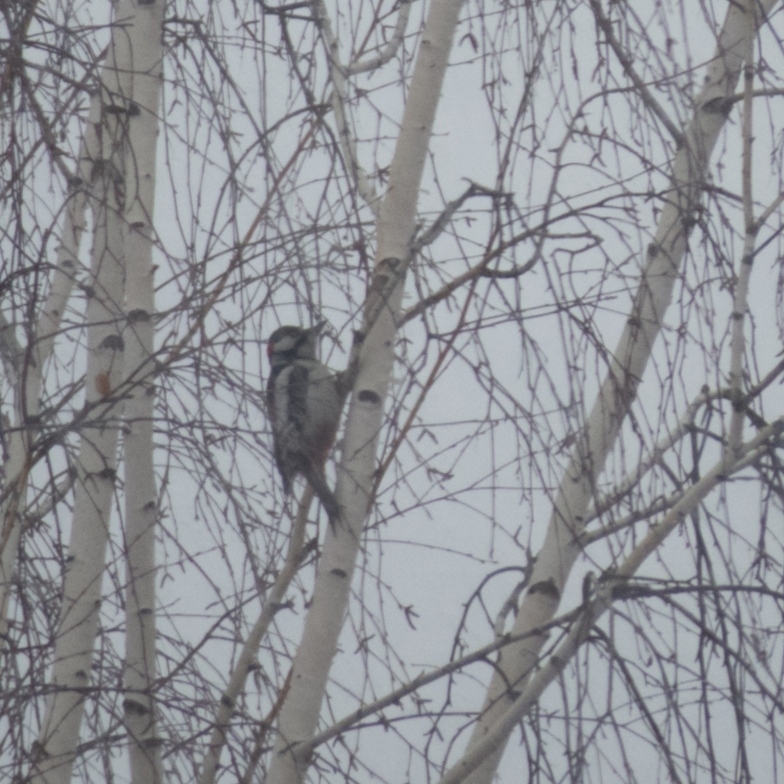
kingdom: Animalia
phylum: Chordata
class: Aves
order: Piciformes
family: Picidae
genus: Dendrocopos
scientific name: Dendrocopos major
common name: Great spotted woodpecker
